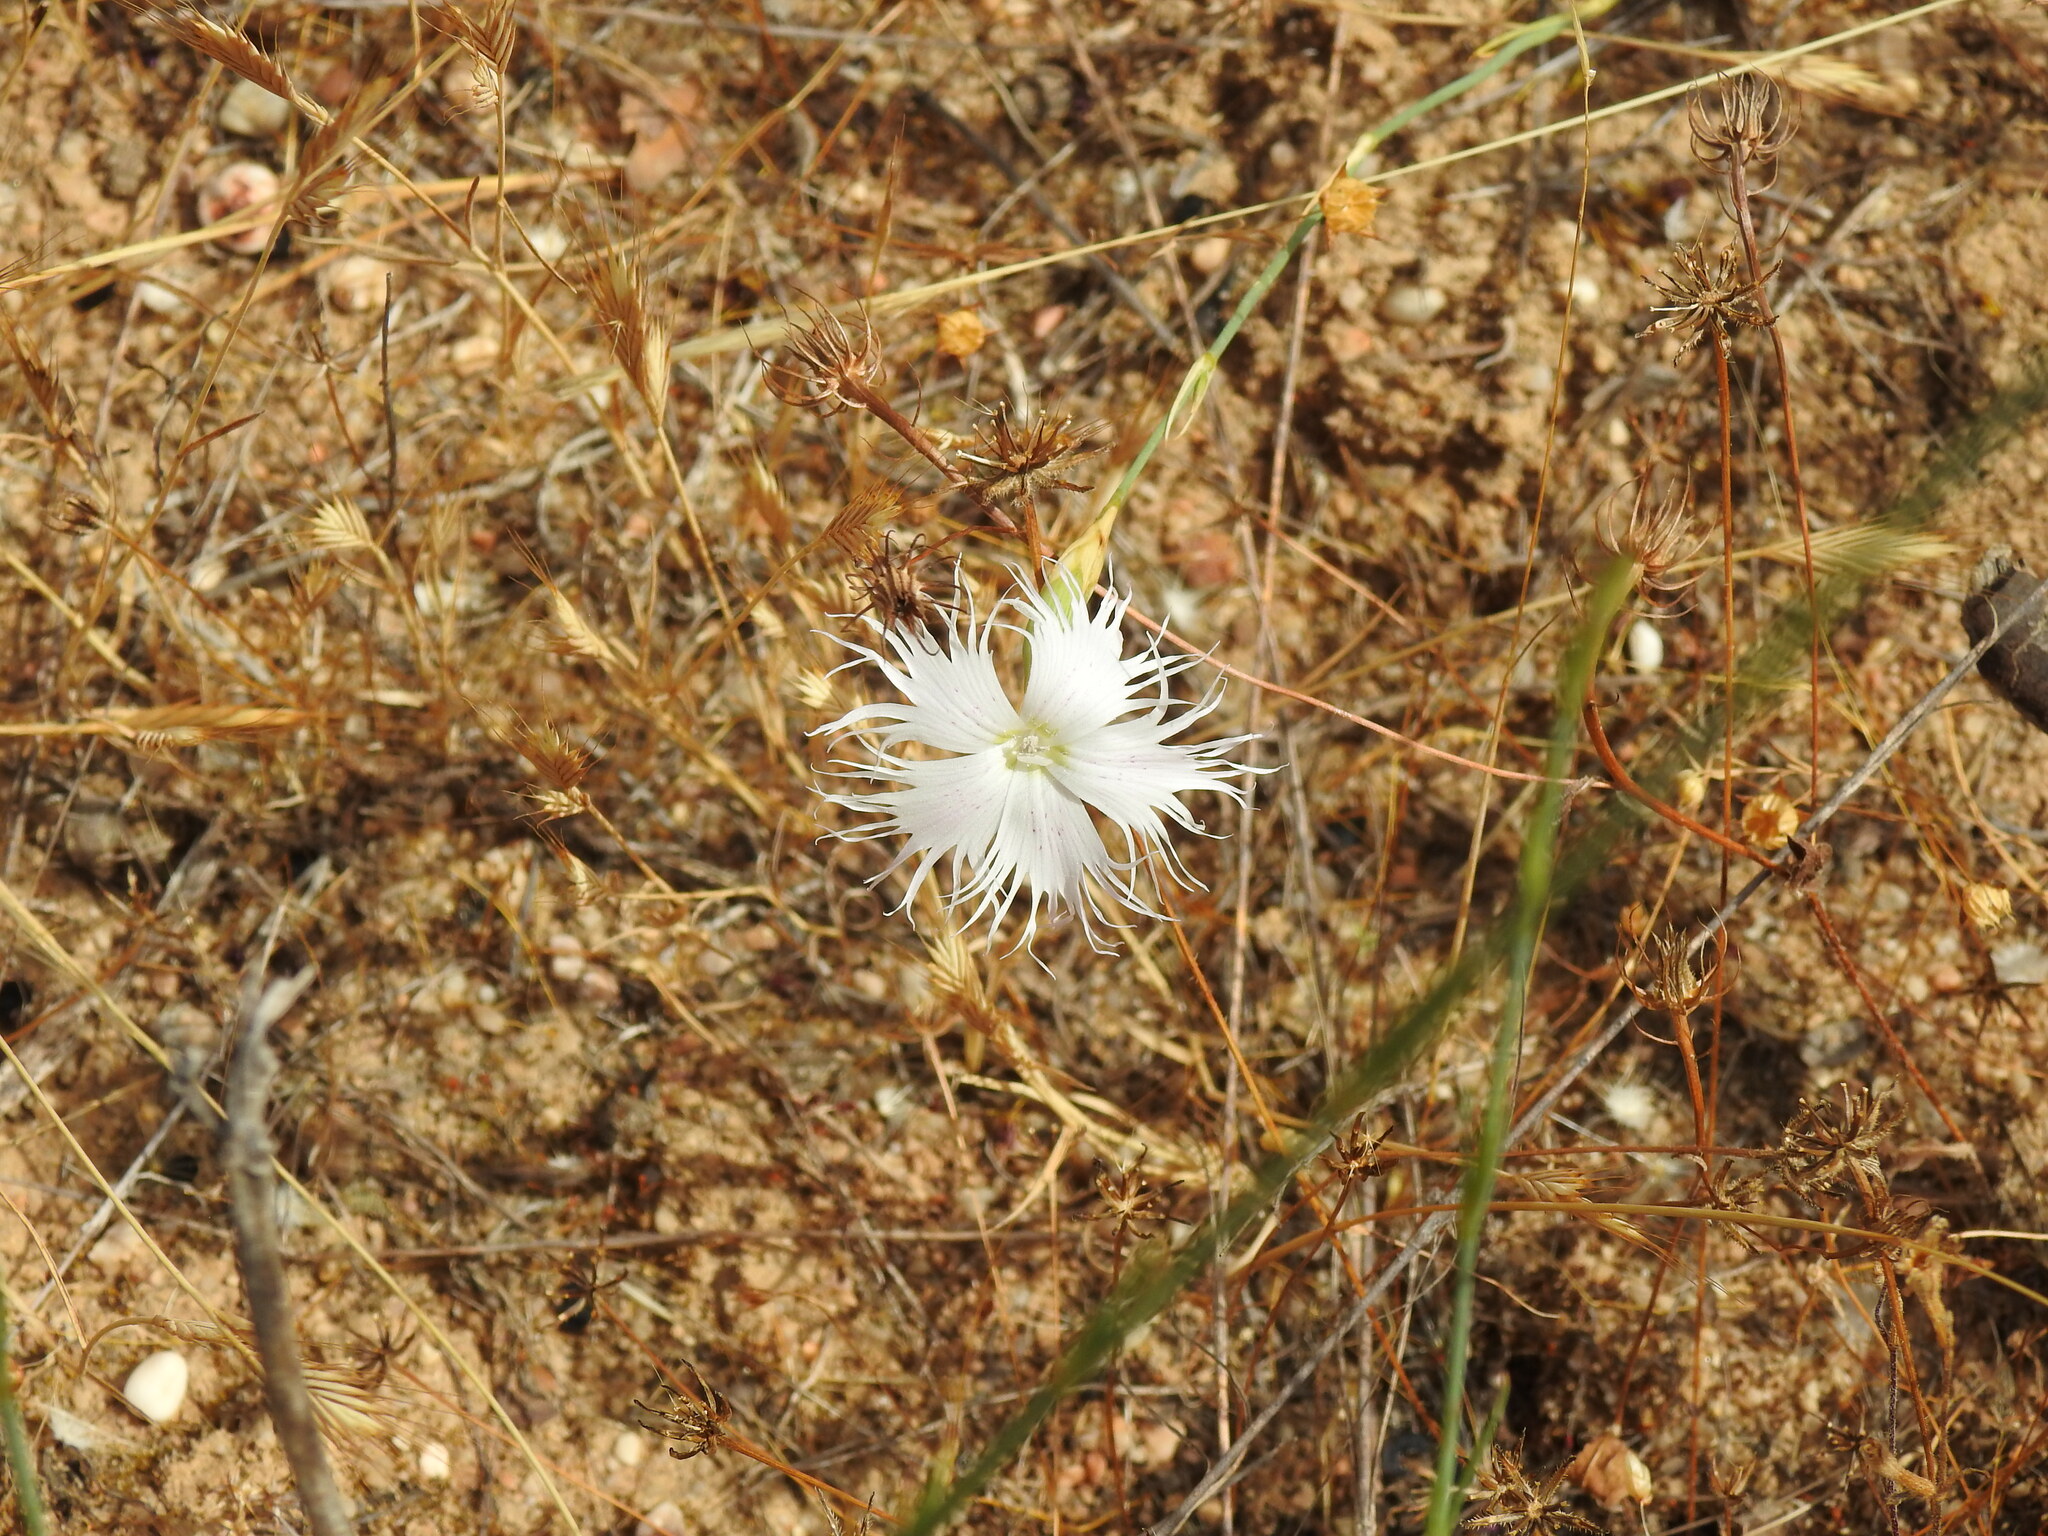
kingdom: Plantae
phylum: Tracheophyta
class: Magnoliopsida
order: Caryophyllales
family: Caryophyllaceae
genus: Dianthus
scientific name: Dianthus broteri
